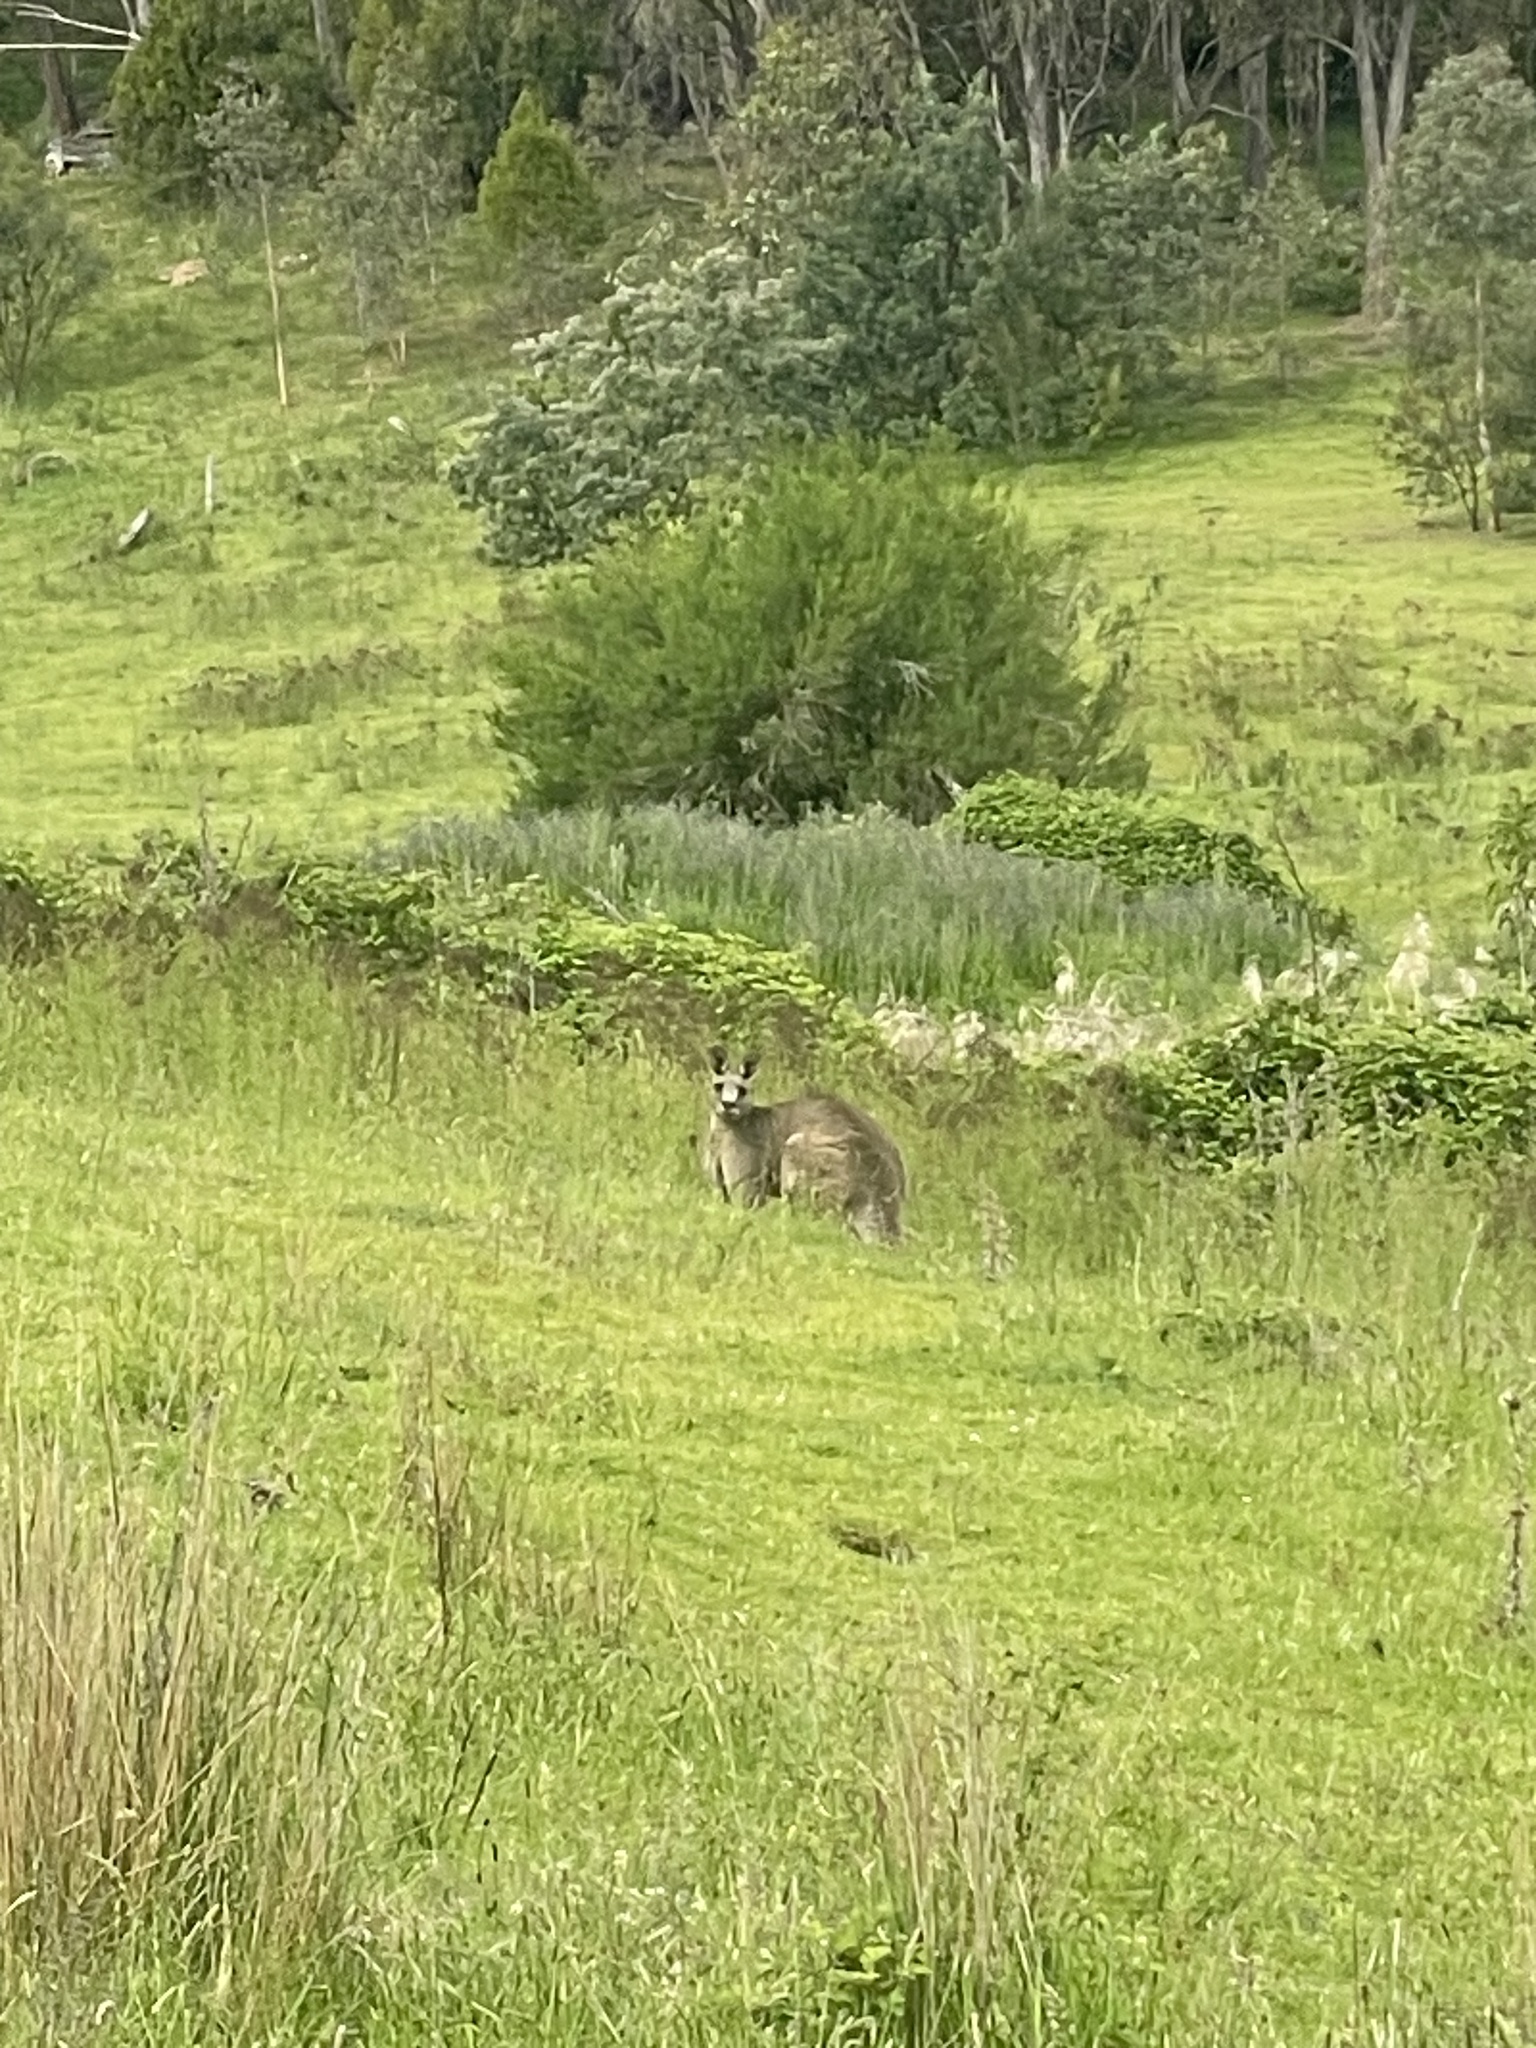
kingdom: Animalia
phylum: Chordata
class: Mammalia
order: Diprotodontia
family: Macropodidae
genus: Macropus
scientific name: Macropus giganteus
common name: Eastern grey kangaroo
